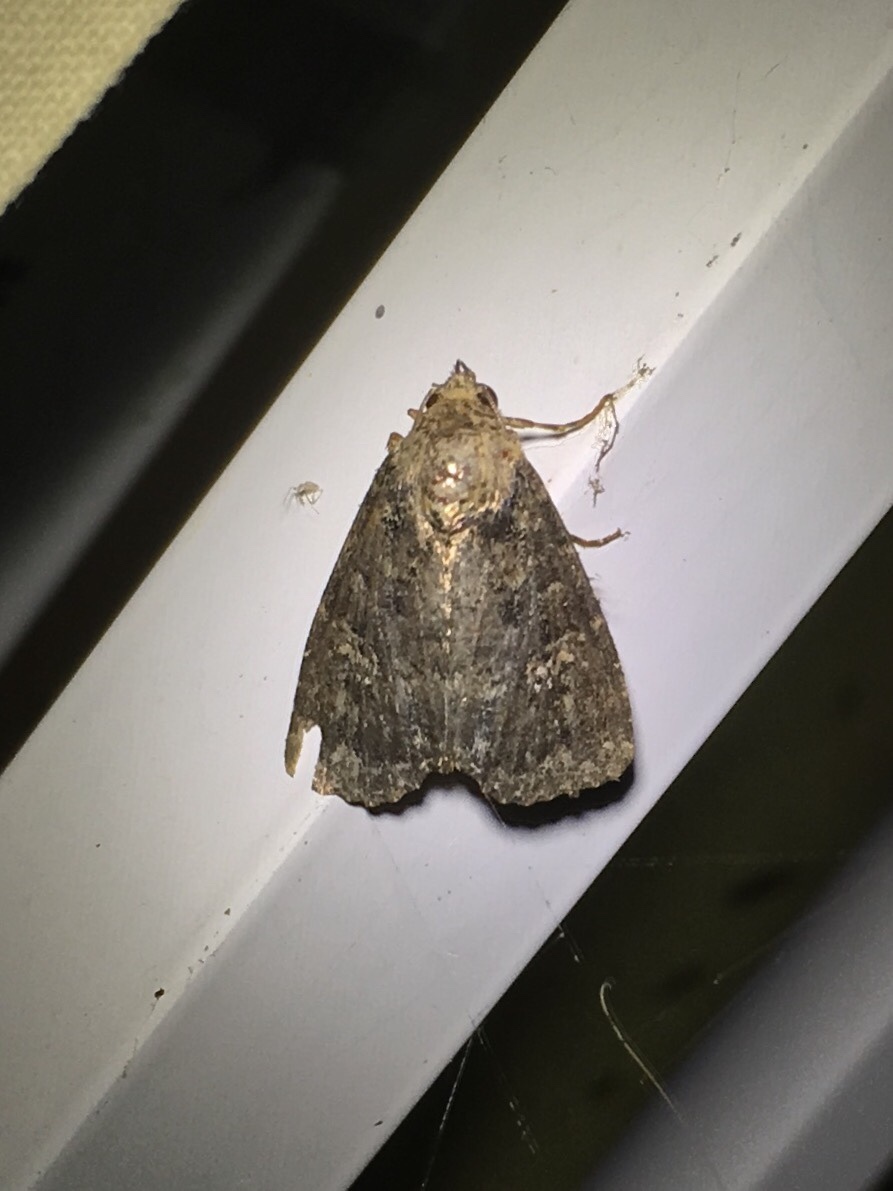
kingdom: Animalia
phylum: Arthropoda
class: Insecta
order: Lepidoptera
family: Noctuidae
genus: Condica
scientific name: Condica vecors
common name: Dusky groundling
